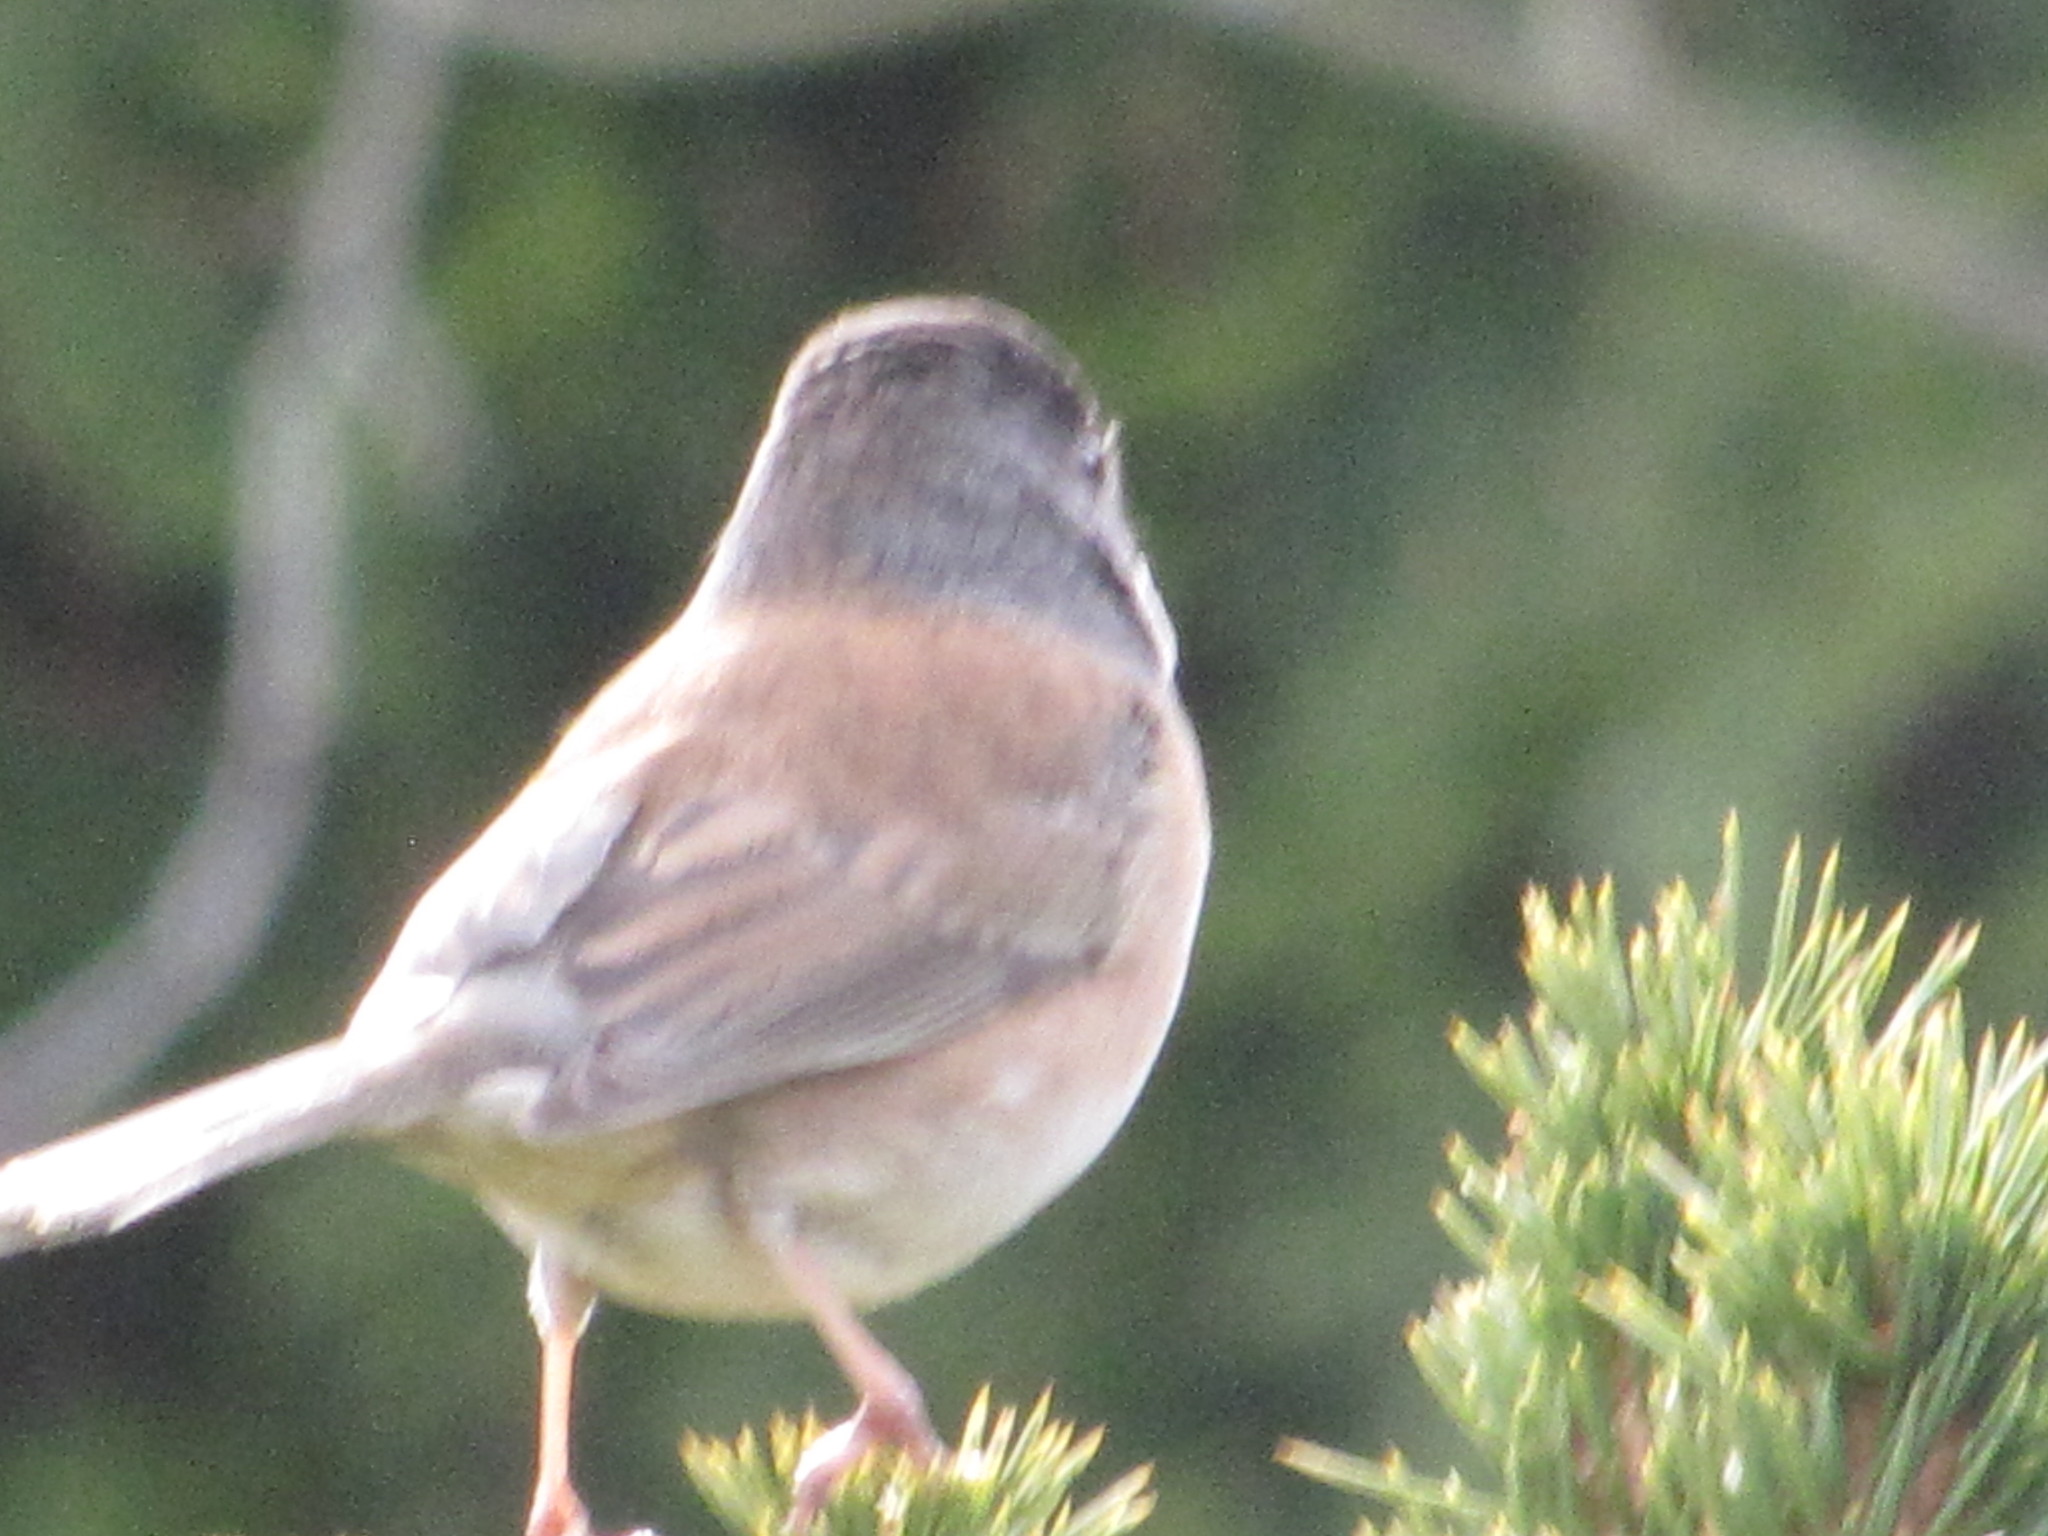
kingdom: Animalia
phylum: Chordata
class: Aves
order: Passeriformes
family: Passerellidae
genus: Junco
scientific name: Junco hyemalis
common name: Dark-eyed junco
